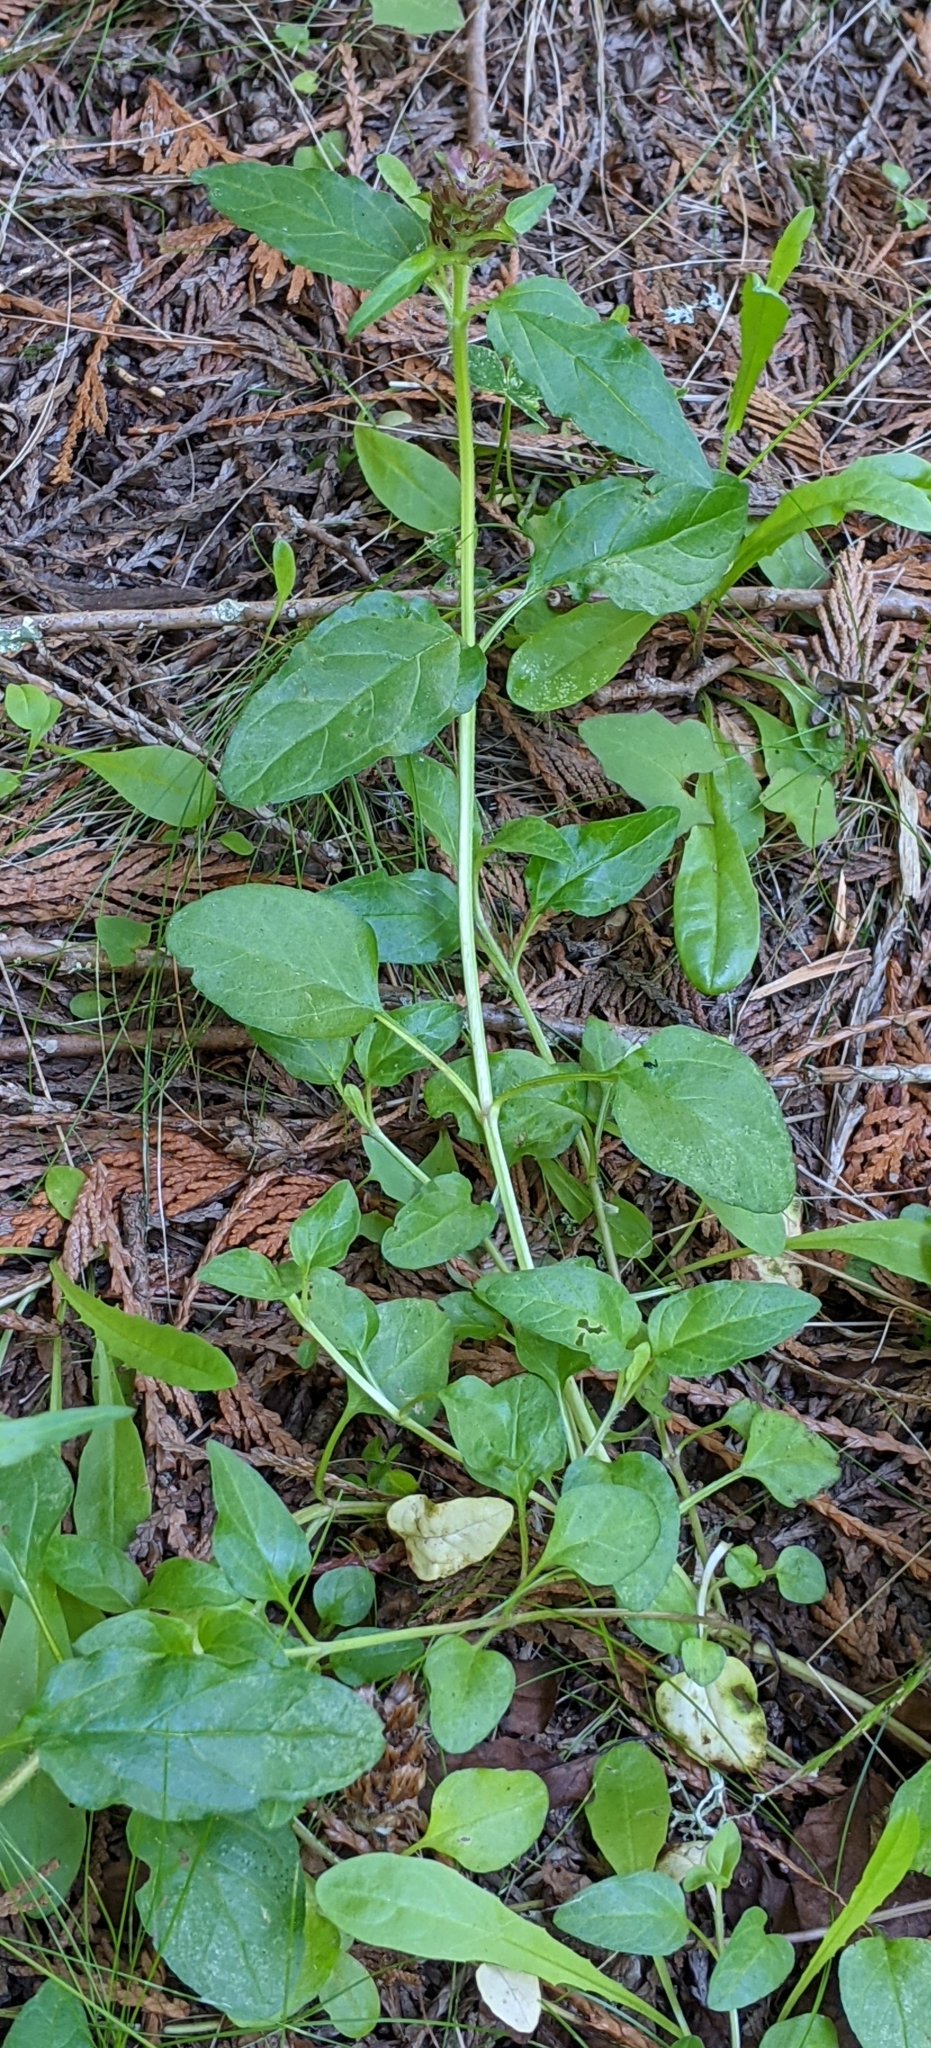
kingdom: Plantae
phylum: Tracheophyta
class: Magnoliopsida
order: Lamiales
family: Lamiaceae
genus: Prunella
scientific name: Prunella vulgaris
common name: Heal-all
